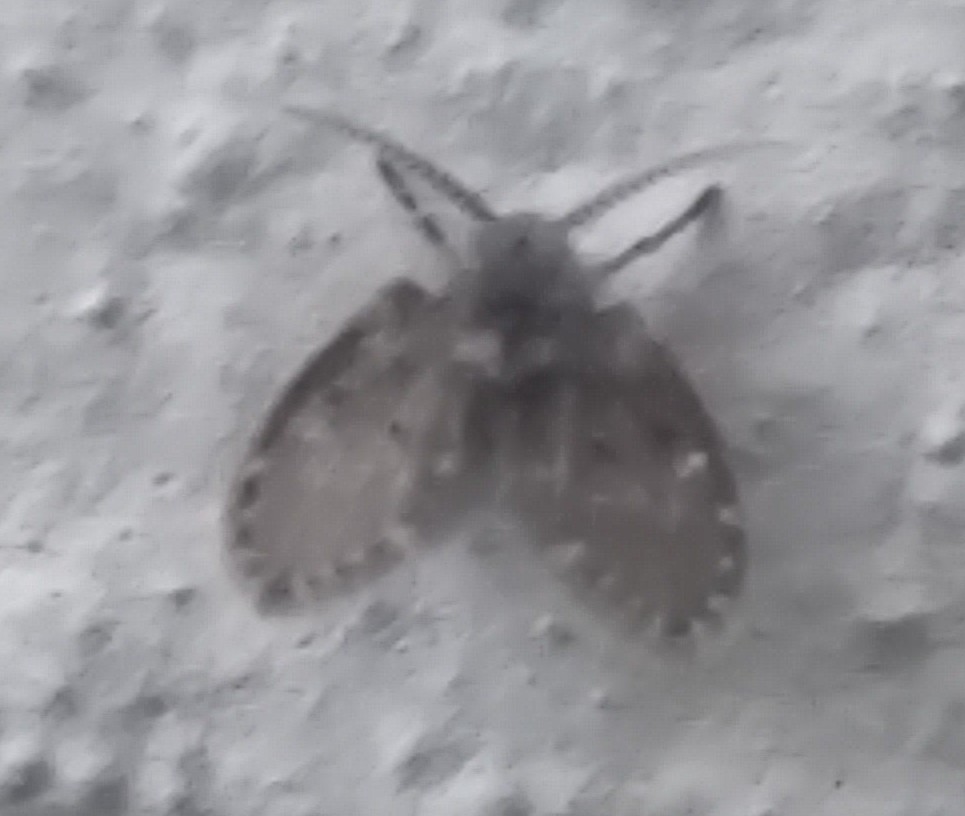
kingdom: Animalia
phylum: Arthropoda
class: Insecta
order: Diptera
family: Psychodidae
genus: Clogmia
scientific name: Clogmia albipunctatus
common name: White-spotted moth fly
